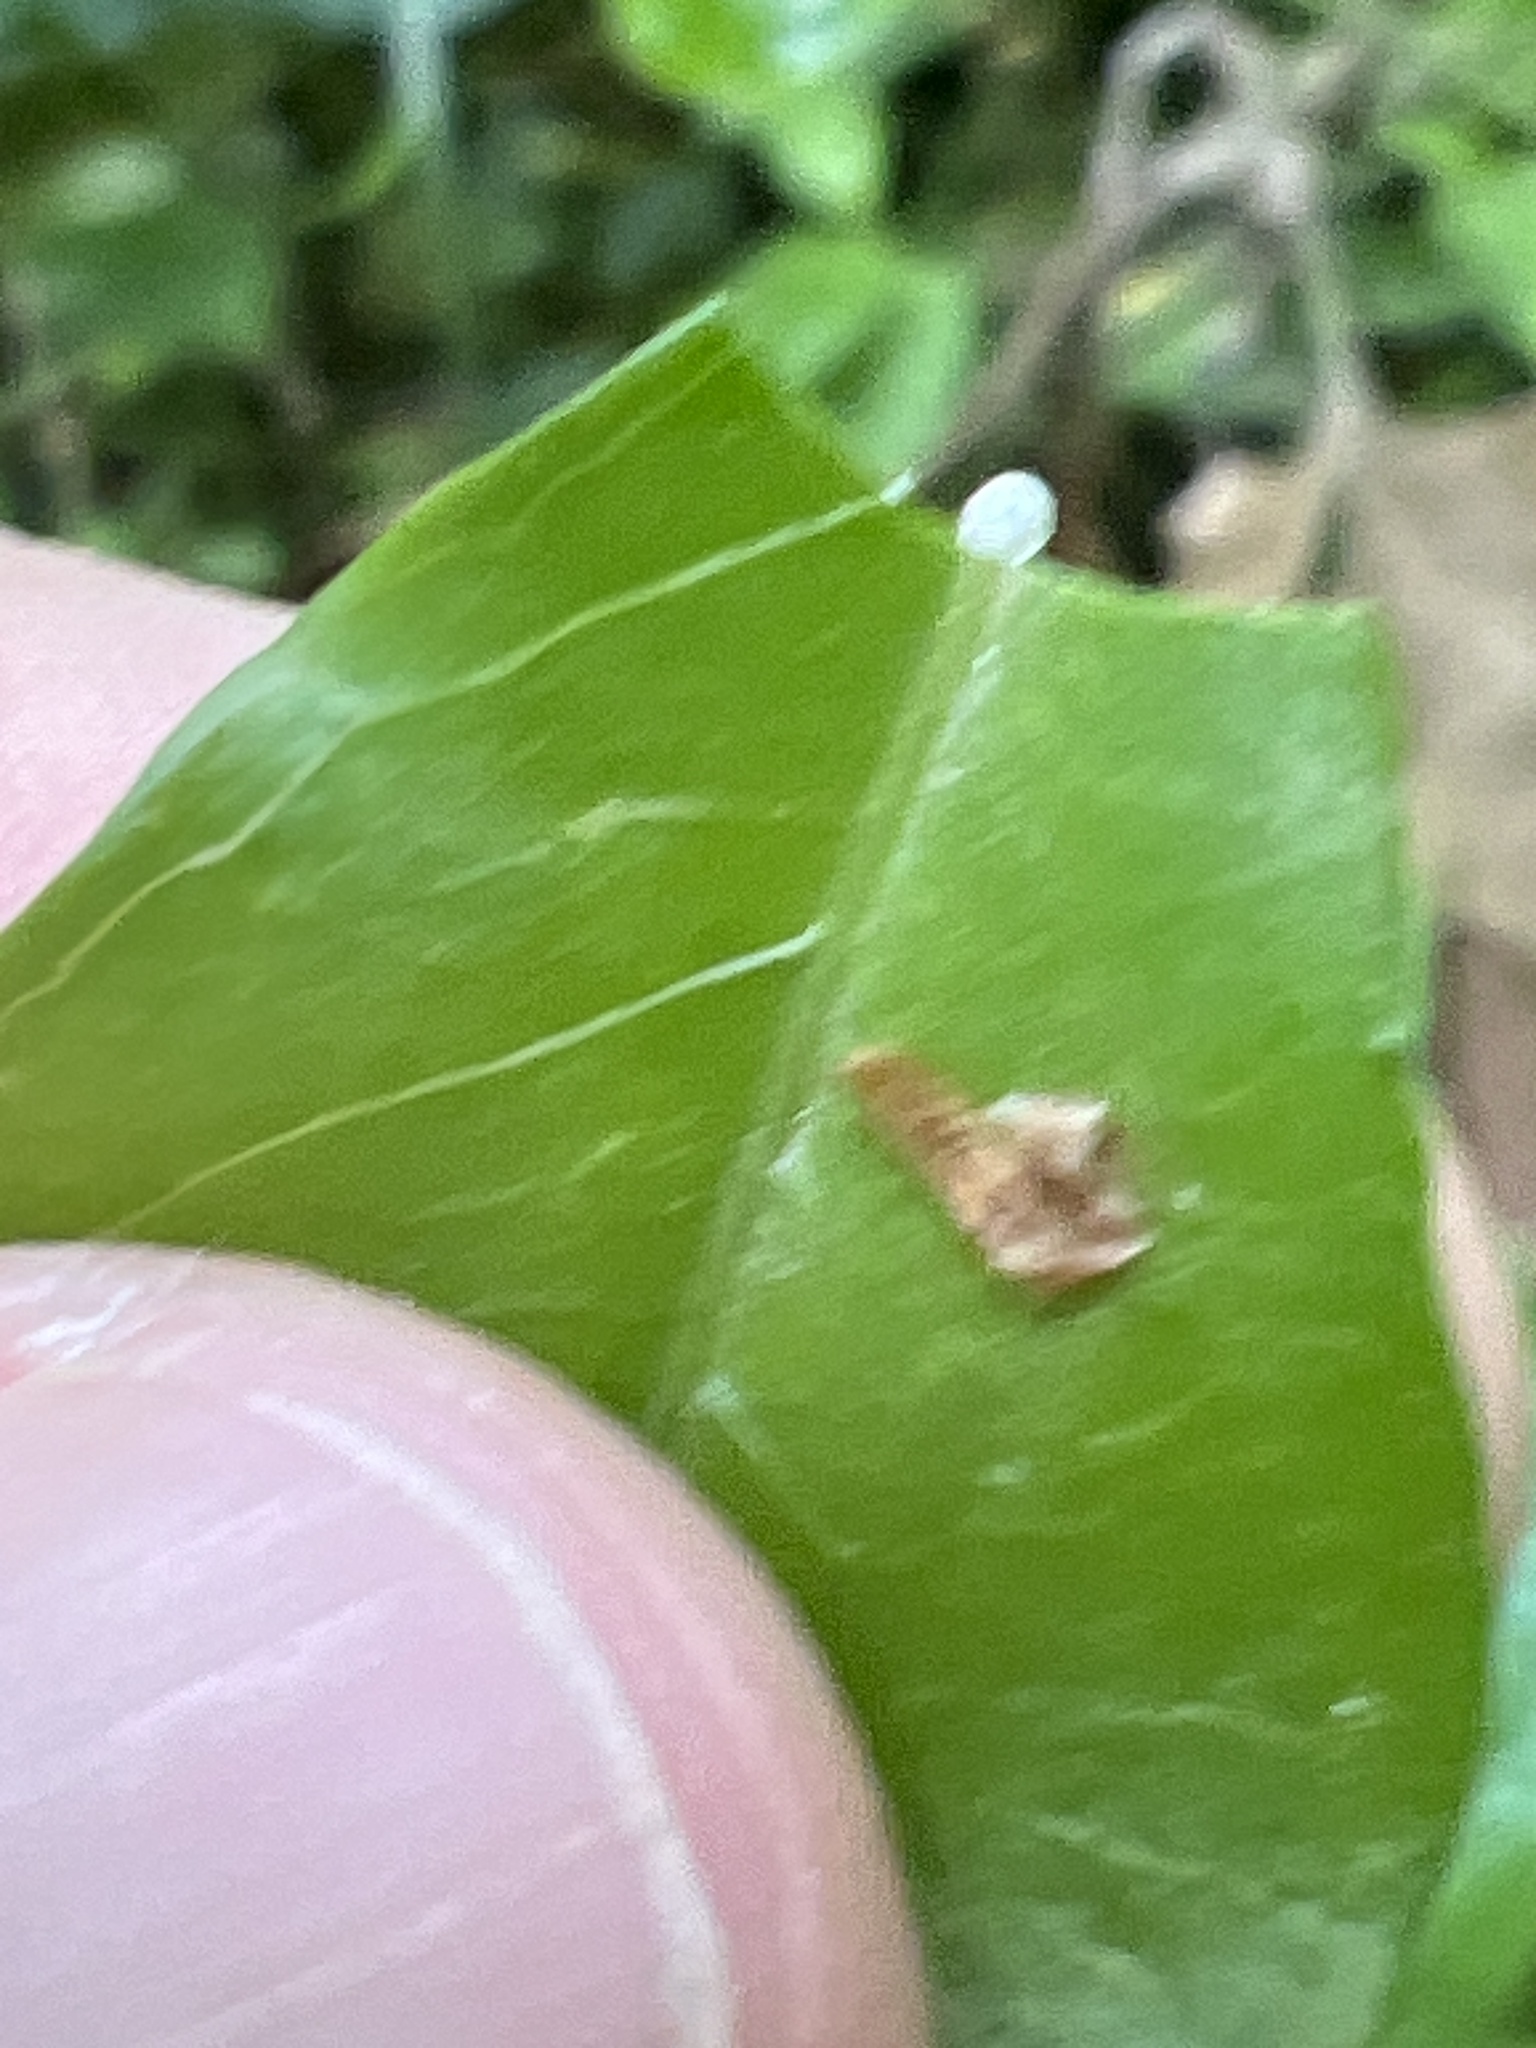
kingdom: Plantae
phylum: Tracheophyta
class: Magnoliopsida
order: Gentianales
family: Apocynaceae
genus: Thyrsanthella
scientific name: Thyrsanthella difformis
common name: Climbing dogbane
